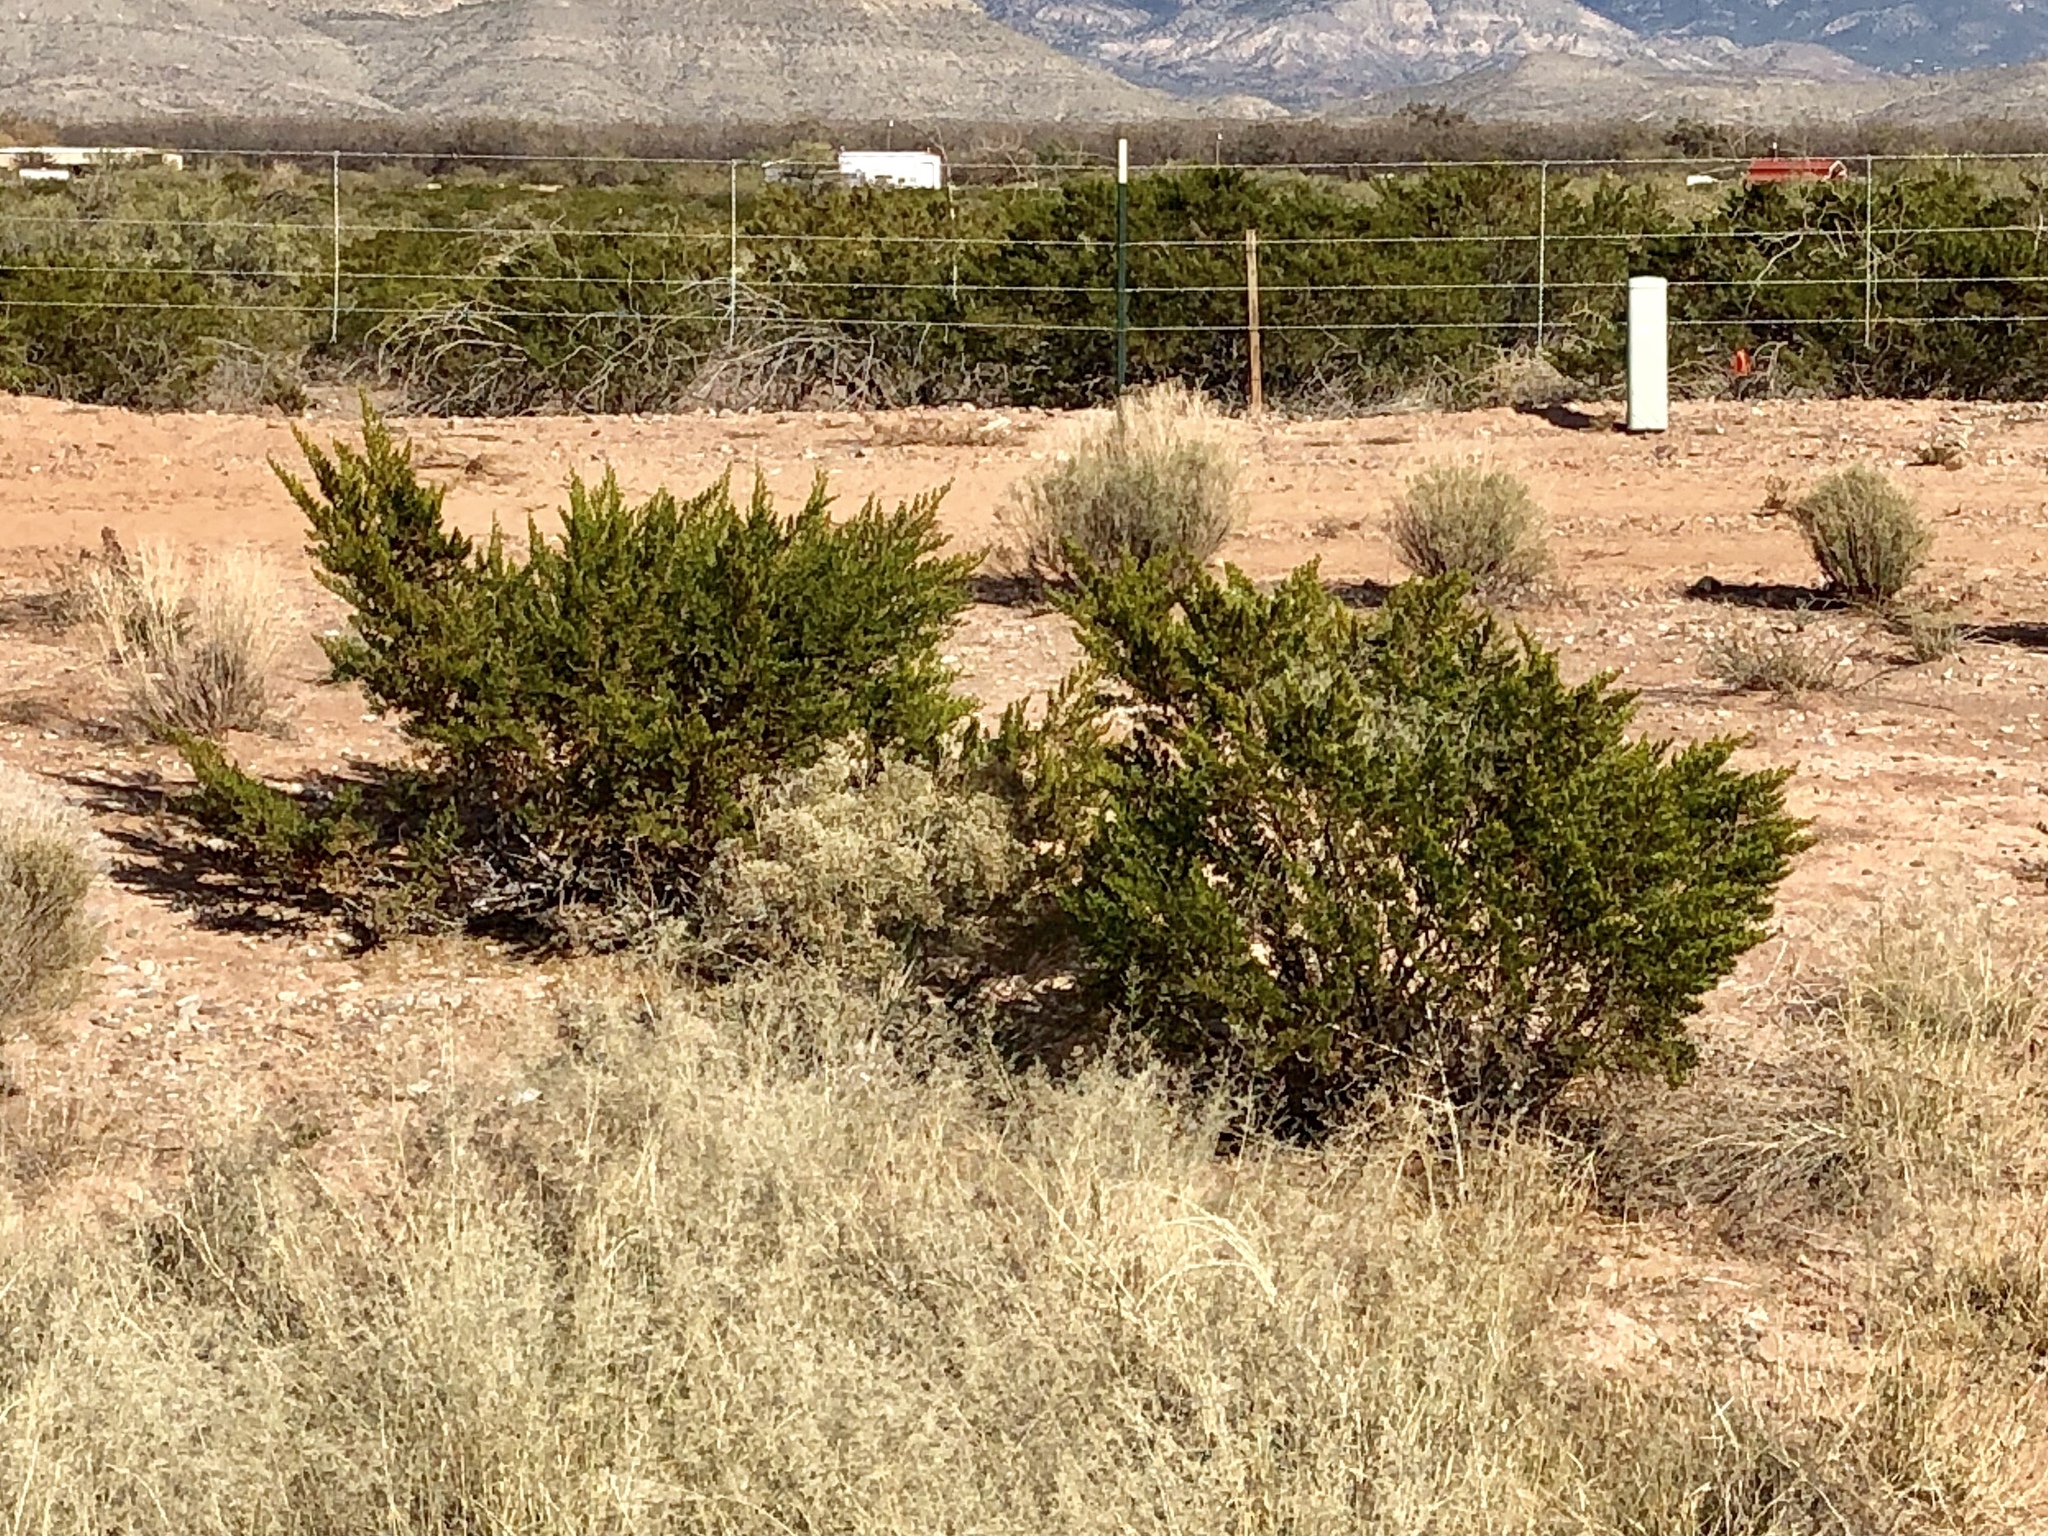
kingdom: Plantae
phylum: Tracheophyta
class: Magnoliopsida
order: Zygophyllales
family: Zygophyllaceae
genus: Larrea
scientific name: Larrea tridentata
